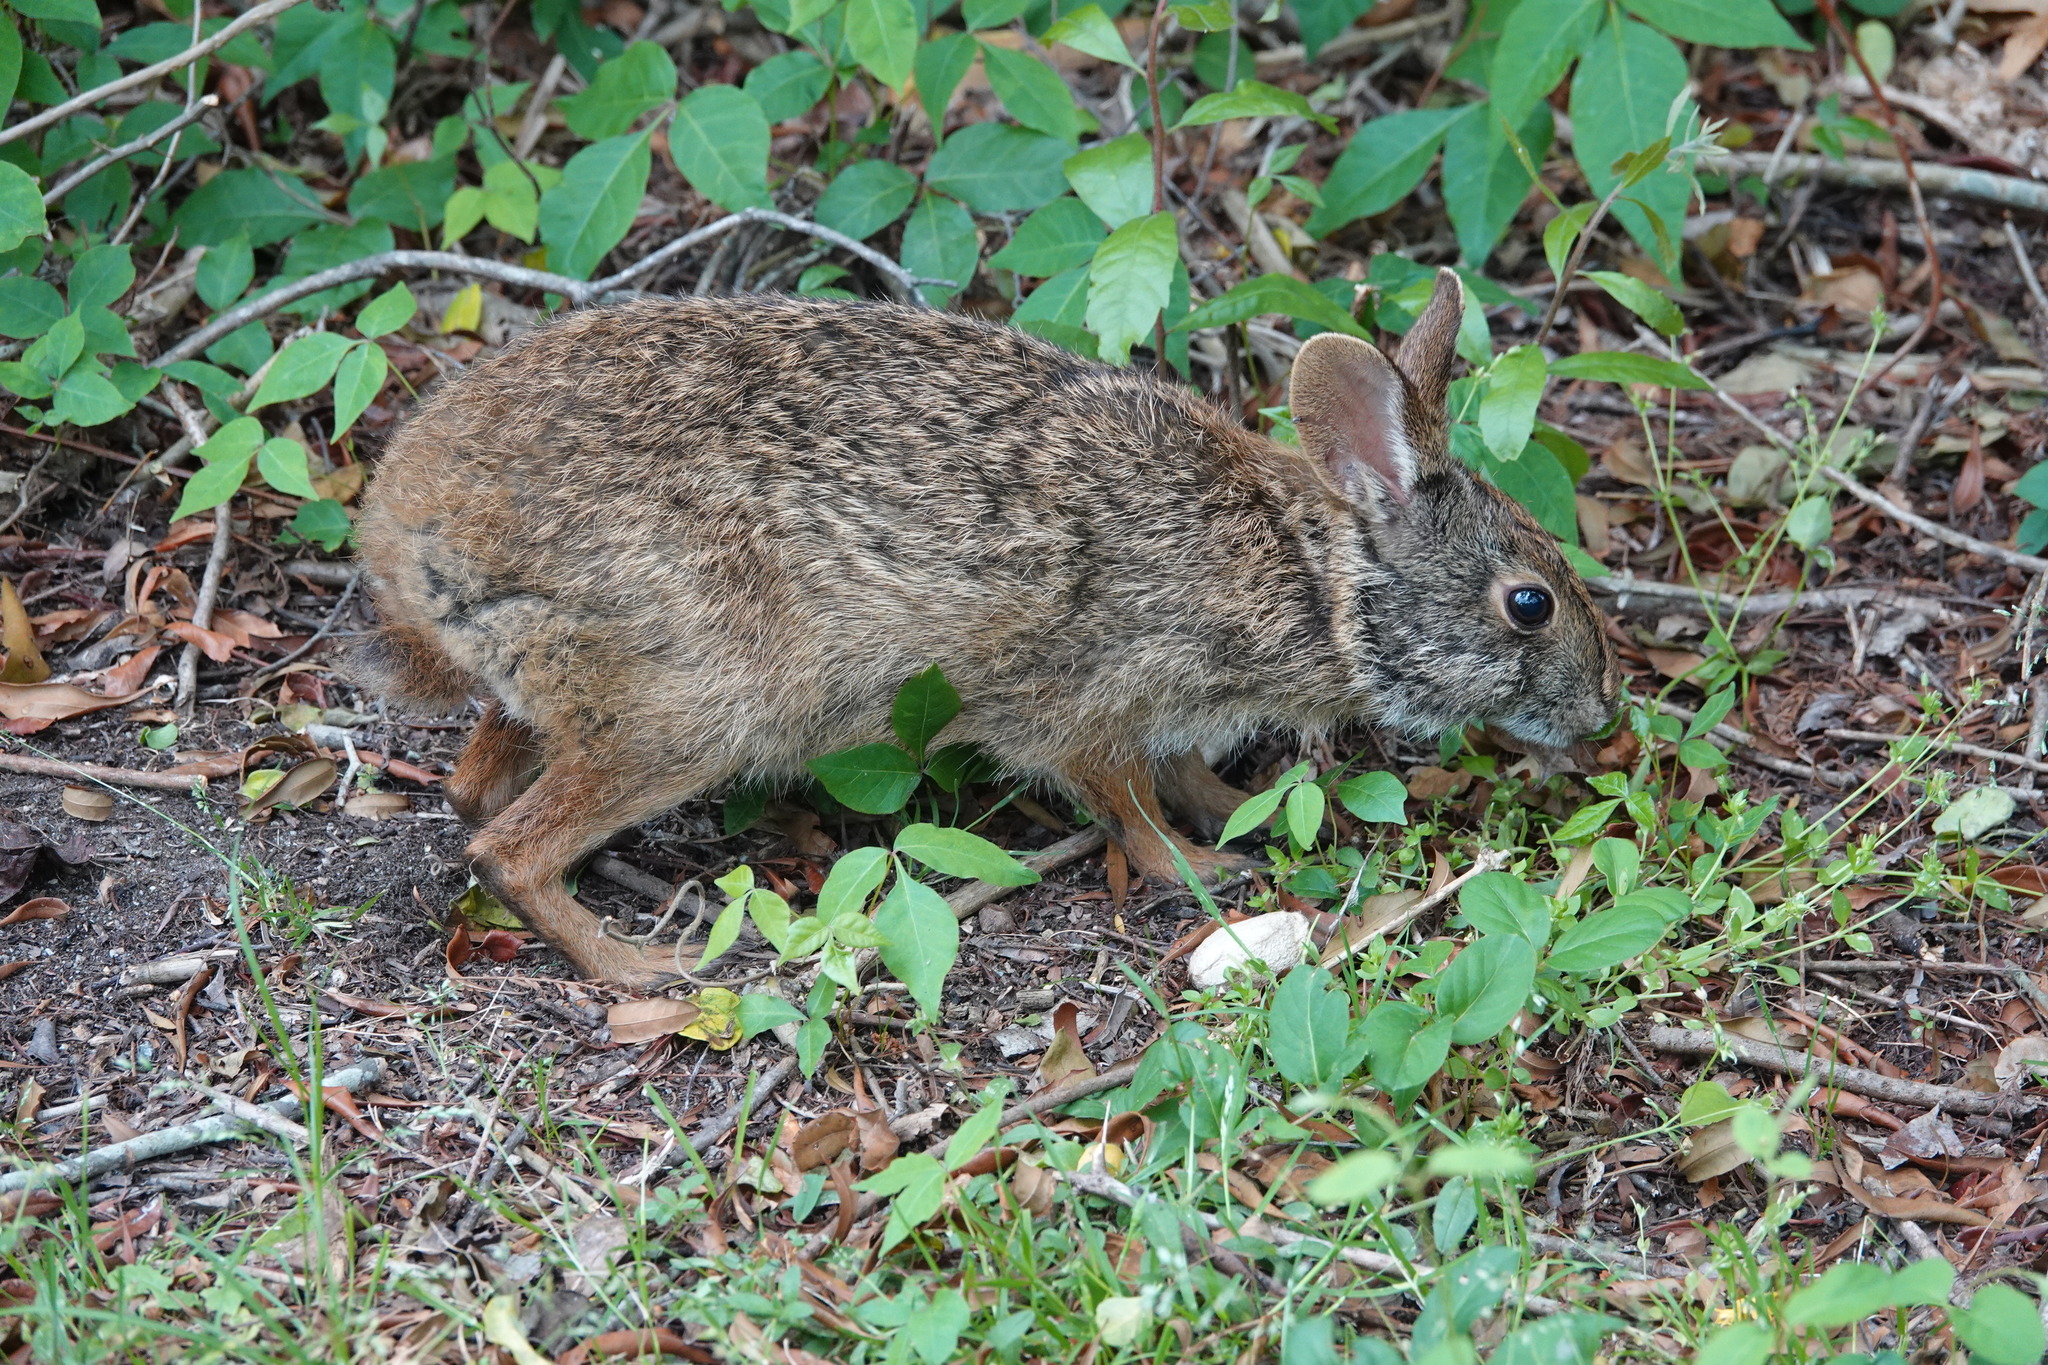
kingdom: Animalia
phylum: Chordata
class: Mammalia
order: Lagomorpha
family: Leporidae
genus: Sylvilagus
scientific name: Sylvilagus palustris
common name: Marsh rabbit
